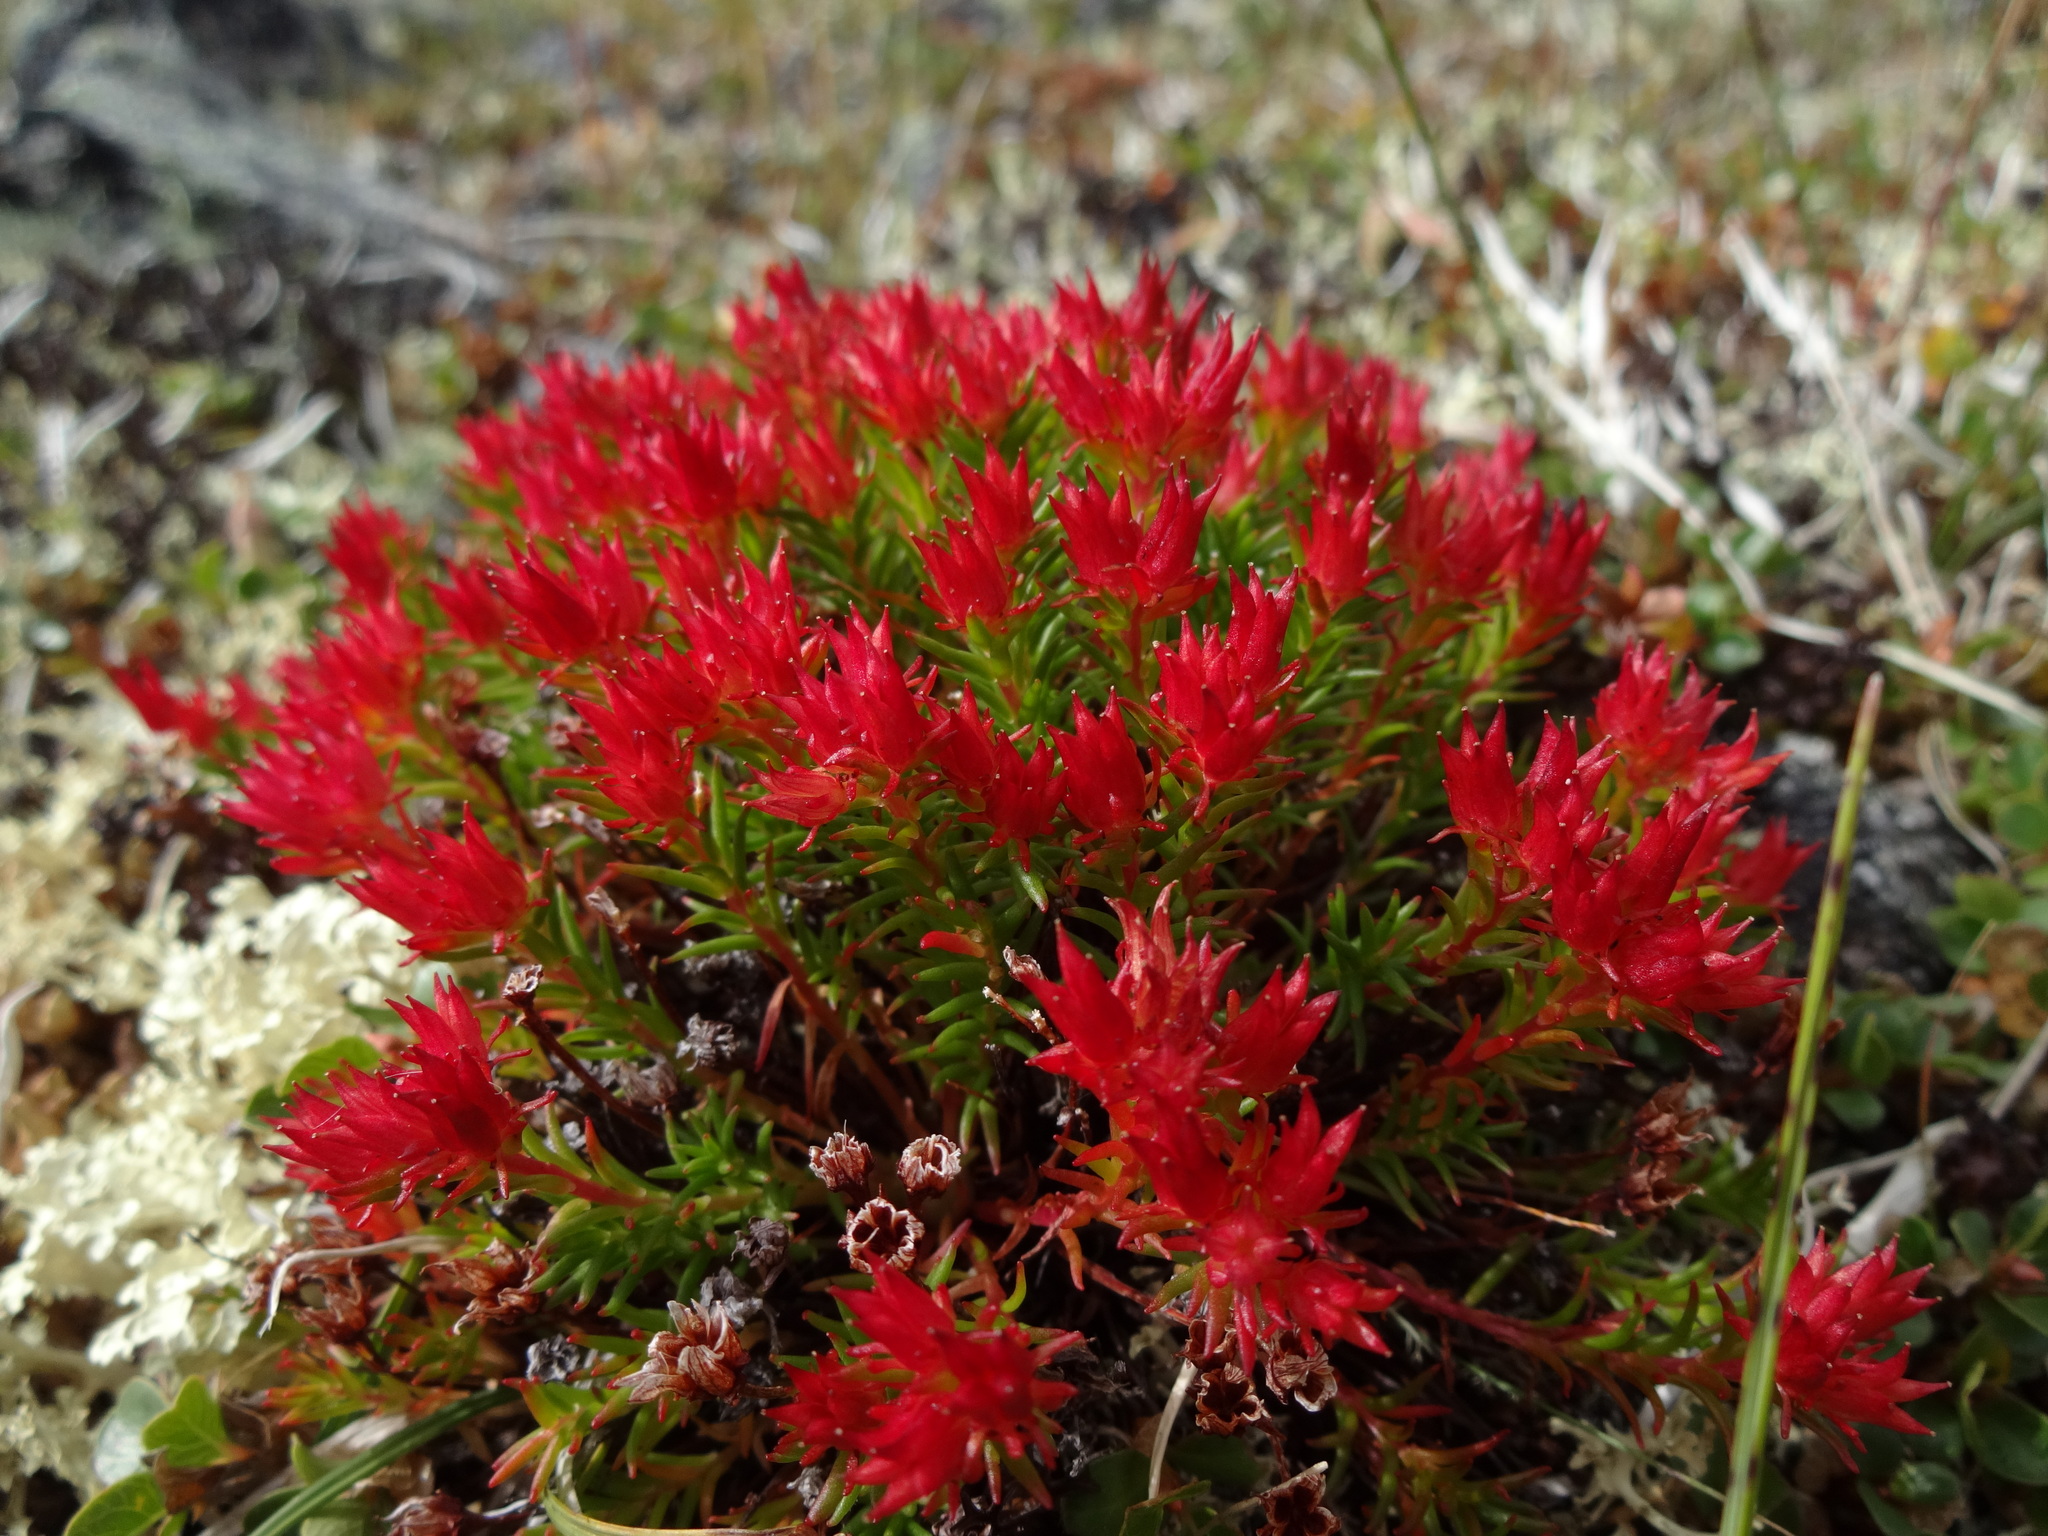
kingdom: Plantae
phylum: Tracheophyta
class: Magnoliopsida
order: Saxifragales
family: Crassulaceae
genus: Rhodiola
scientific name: Rhodiola quadrifida
